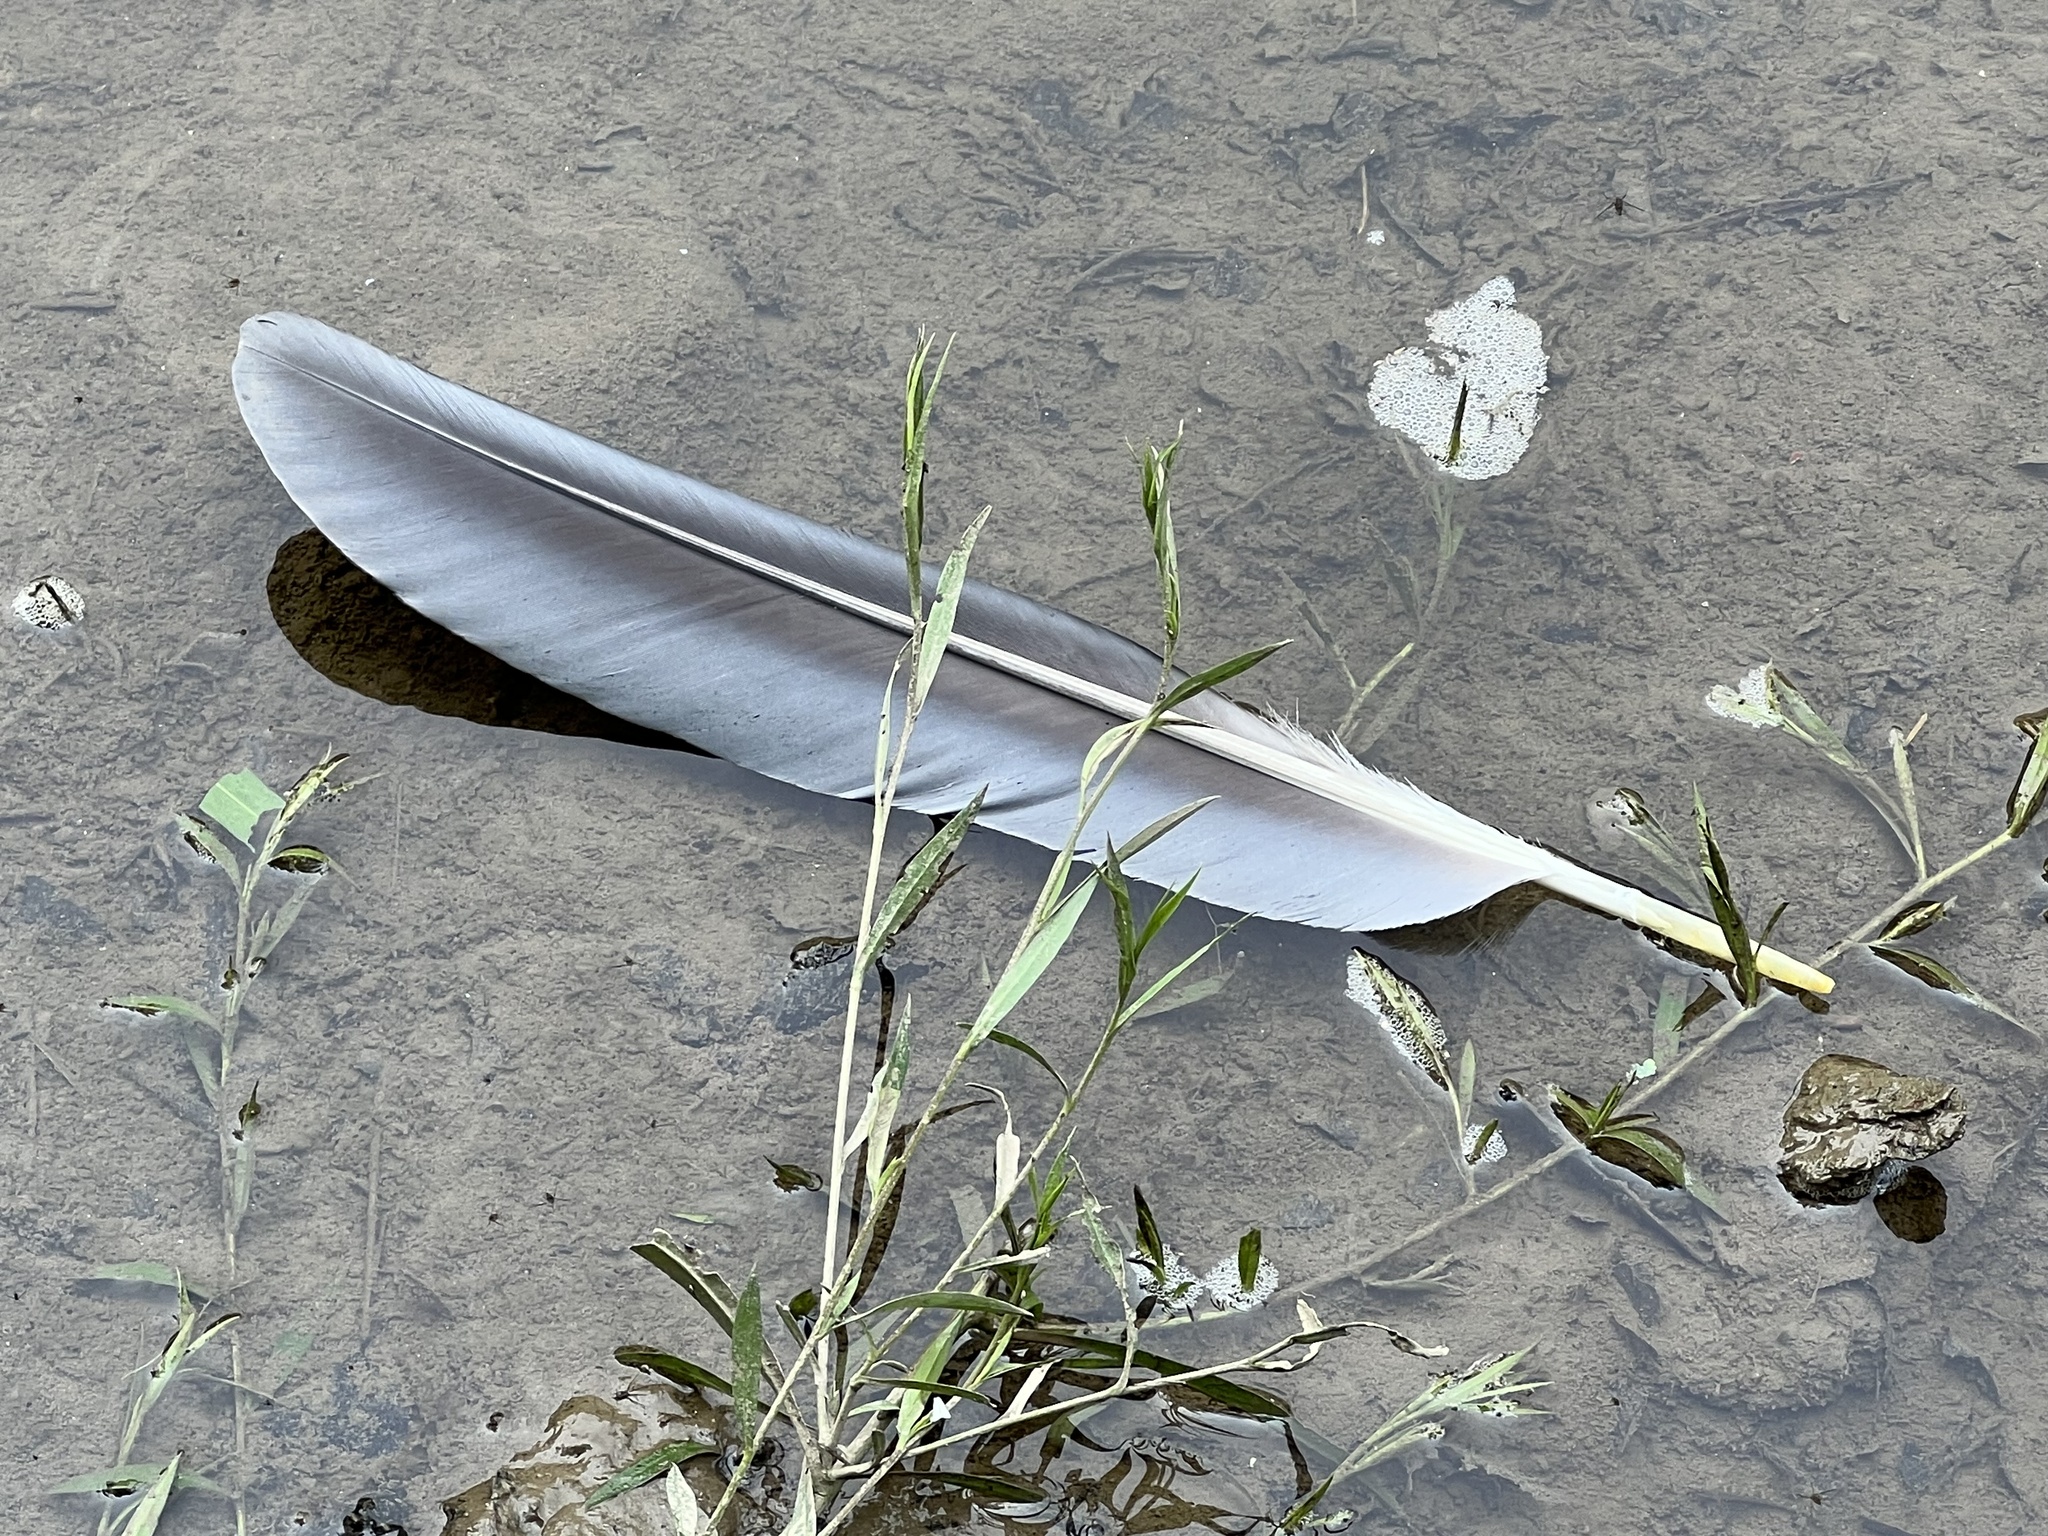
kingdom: Animalia
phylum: Chordata
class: Aves
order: Pelecaniformes
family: Ardeidae
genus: Ardea
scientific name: Ardea herodias
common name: Great blue heron
